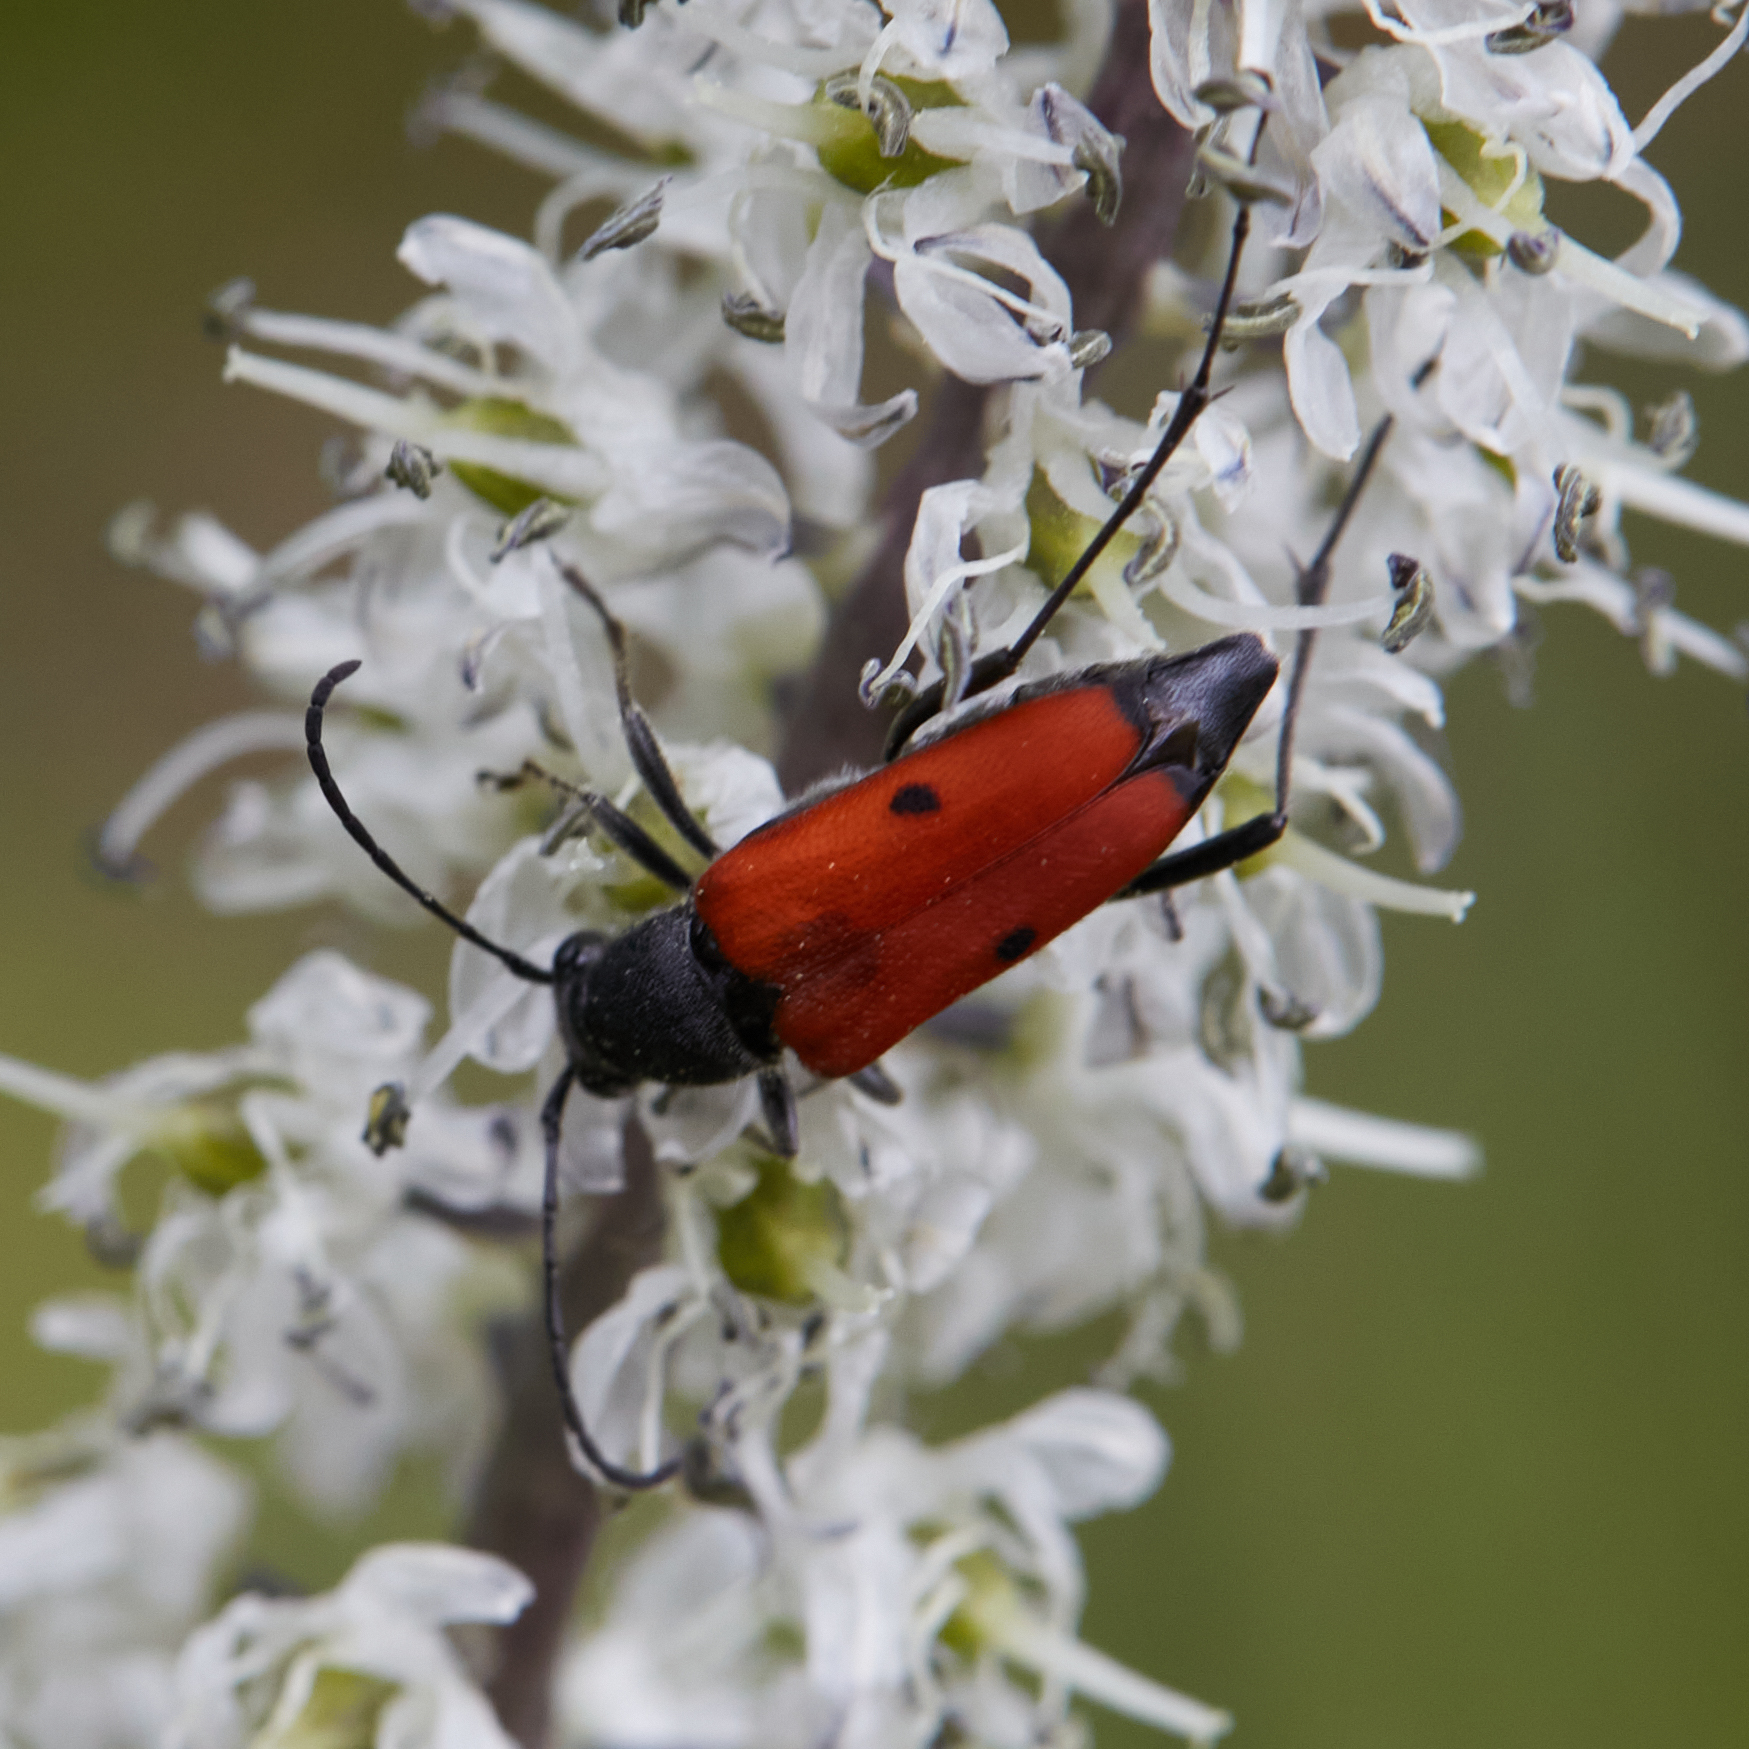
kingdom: Animalia
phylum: Arthropoda
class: Insecta
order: Coleoptera
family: Cerambycidae
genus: Anastrangalia
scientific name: Anastrangalia laetifica
